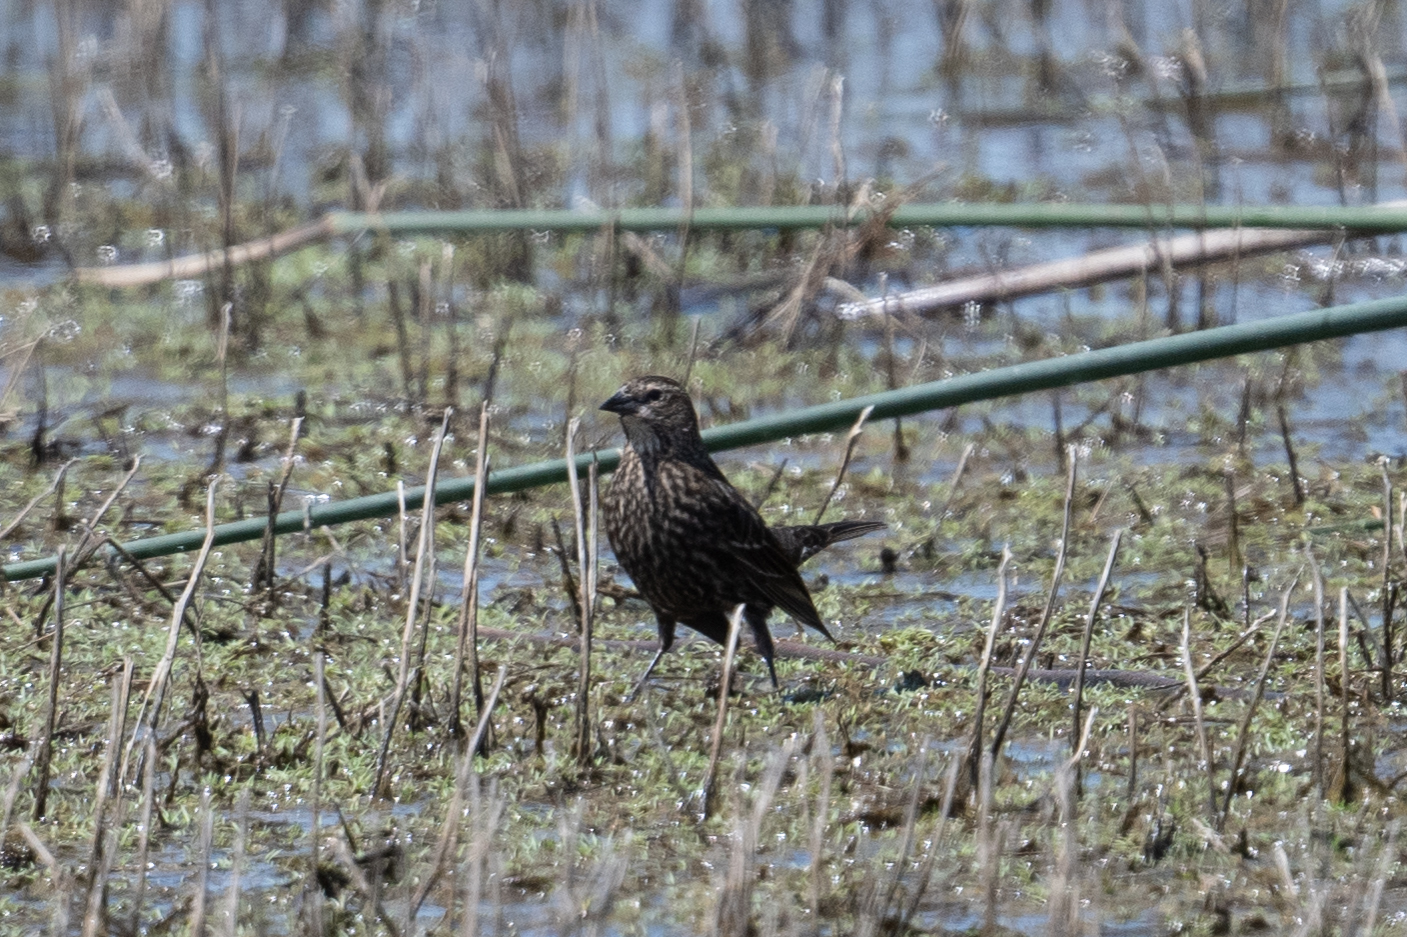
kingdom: Animalia
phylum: Chordata
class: Aves
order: Passeriformes
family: Icteridae
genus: Agelaius
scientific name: Agelaius phoeniceus
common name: Red-winged blackbird
